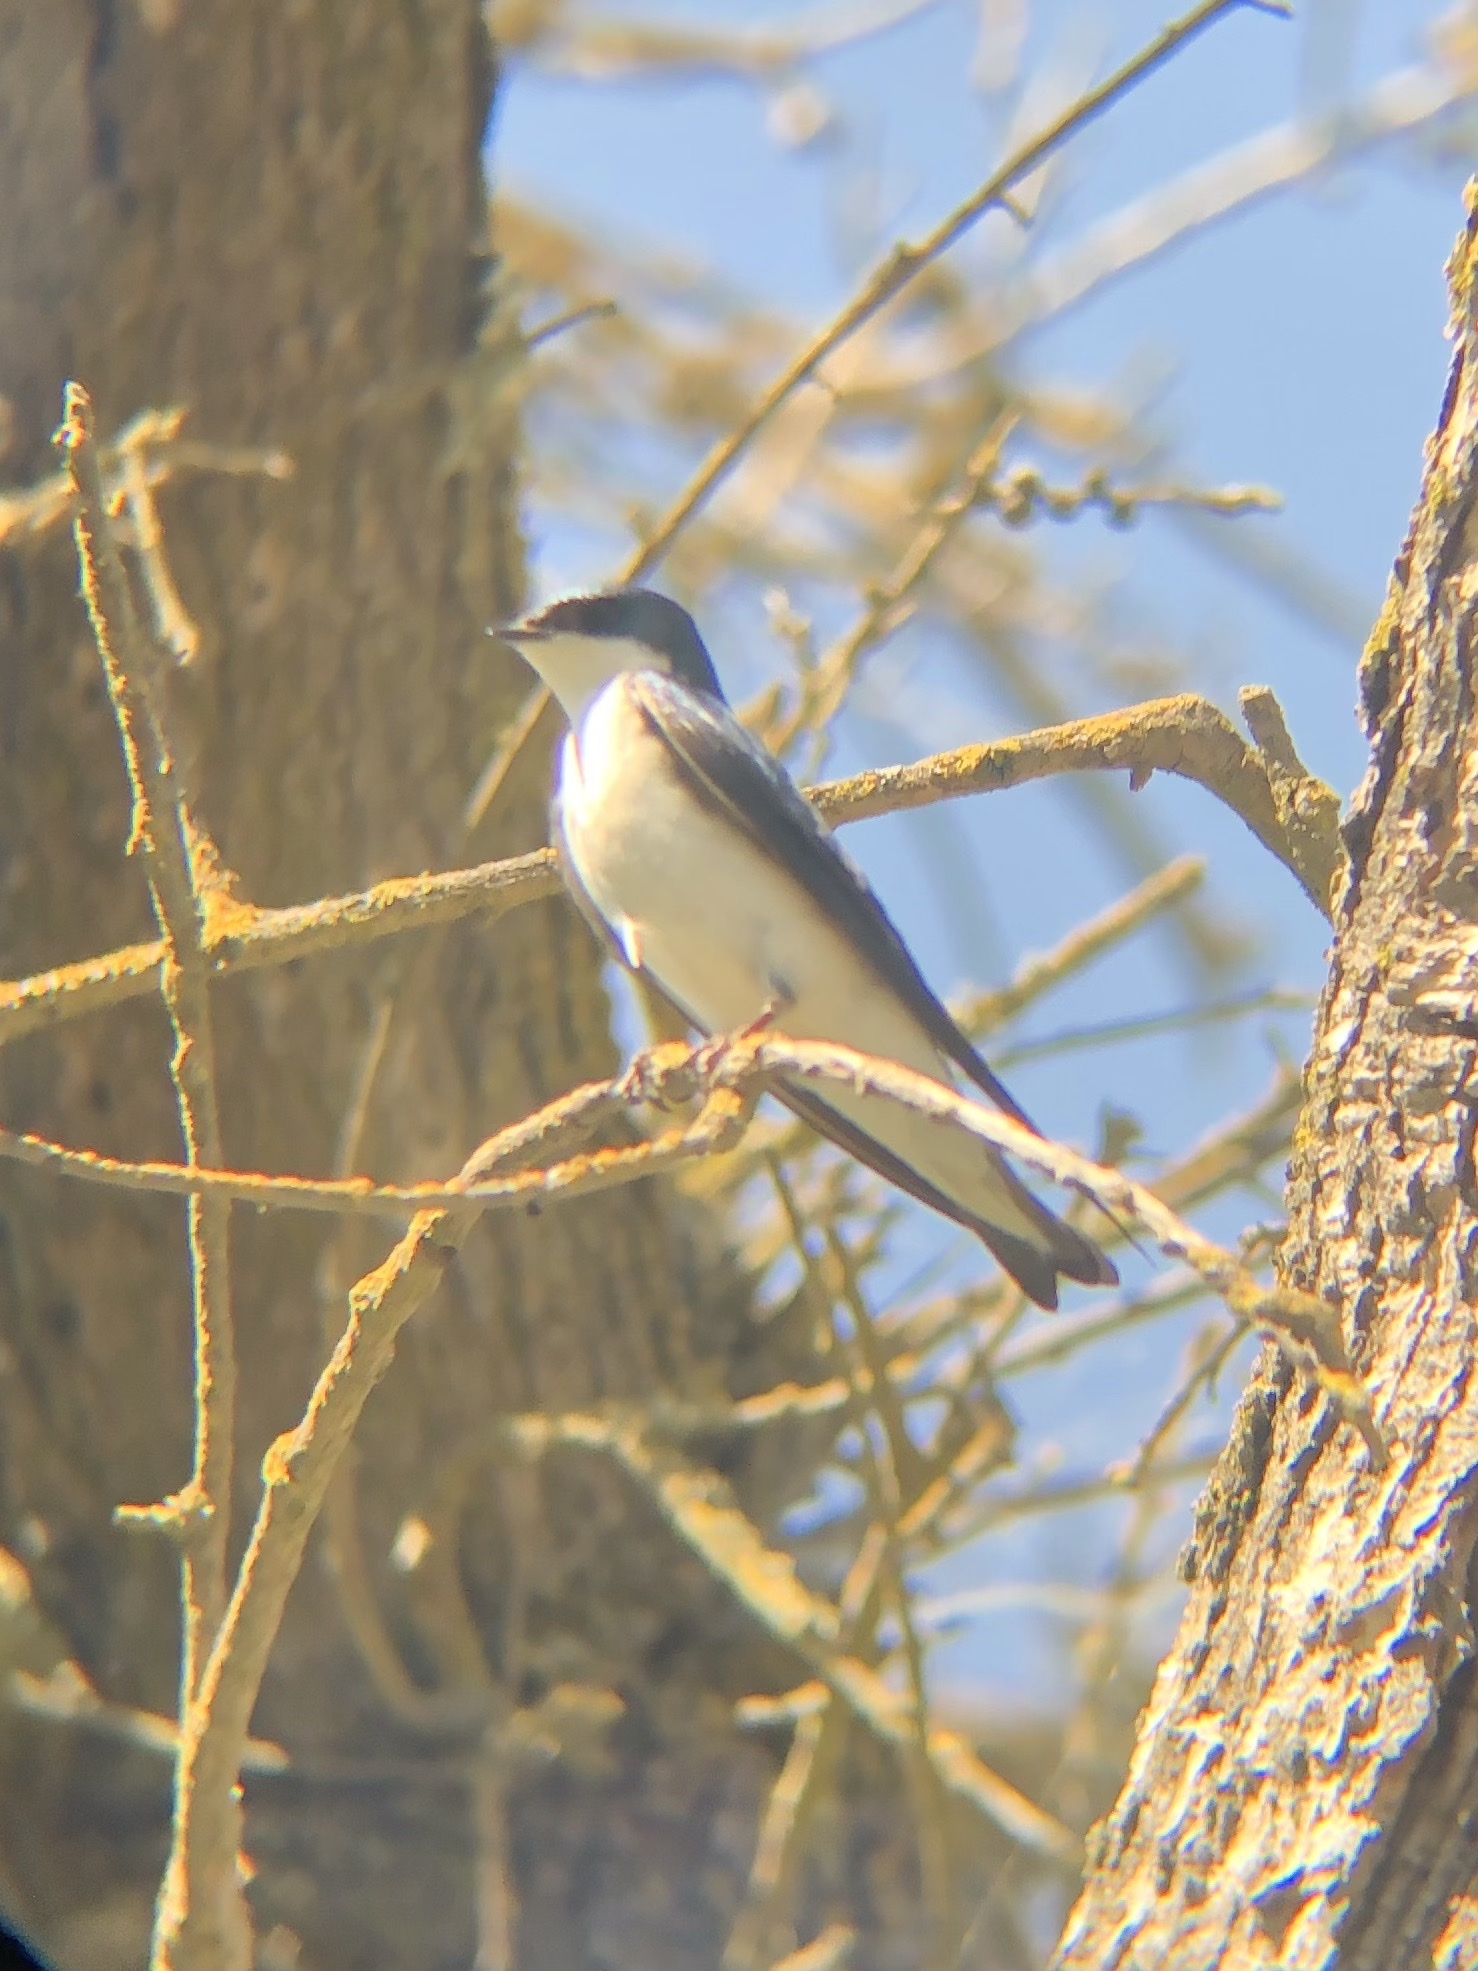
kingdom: Animalia
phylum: Chordata
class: Aves
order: Passeriformes
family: Hirundinidae
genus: Tachycineta
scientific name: Tachycineta bicolor
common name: Tree swallow
